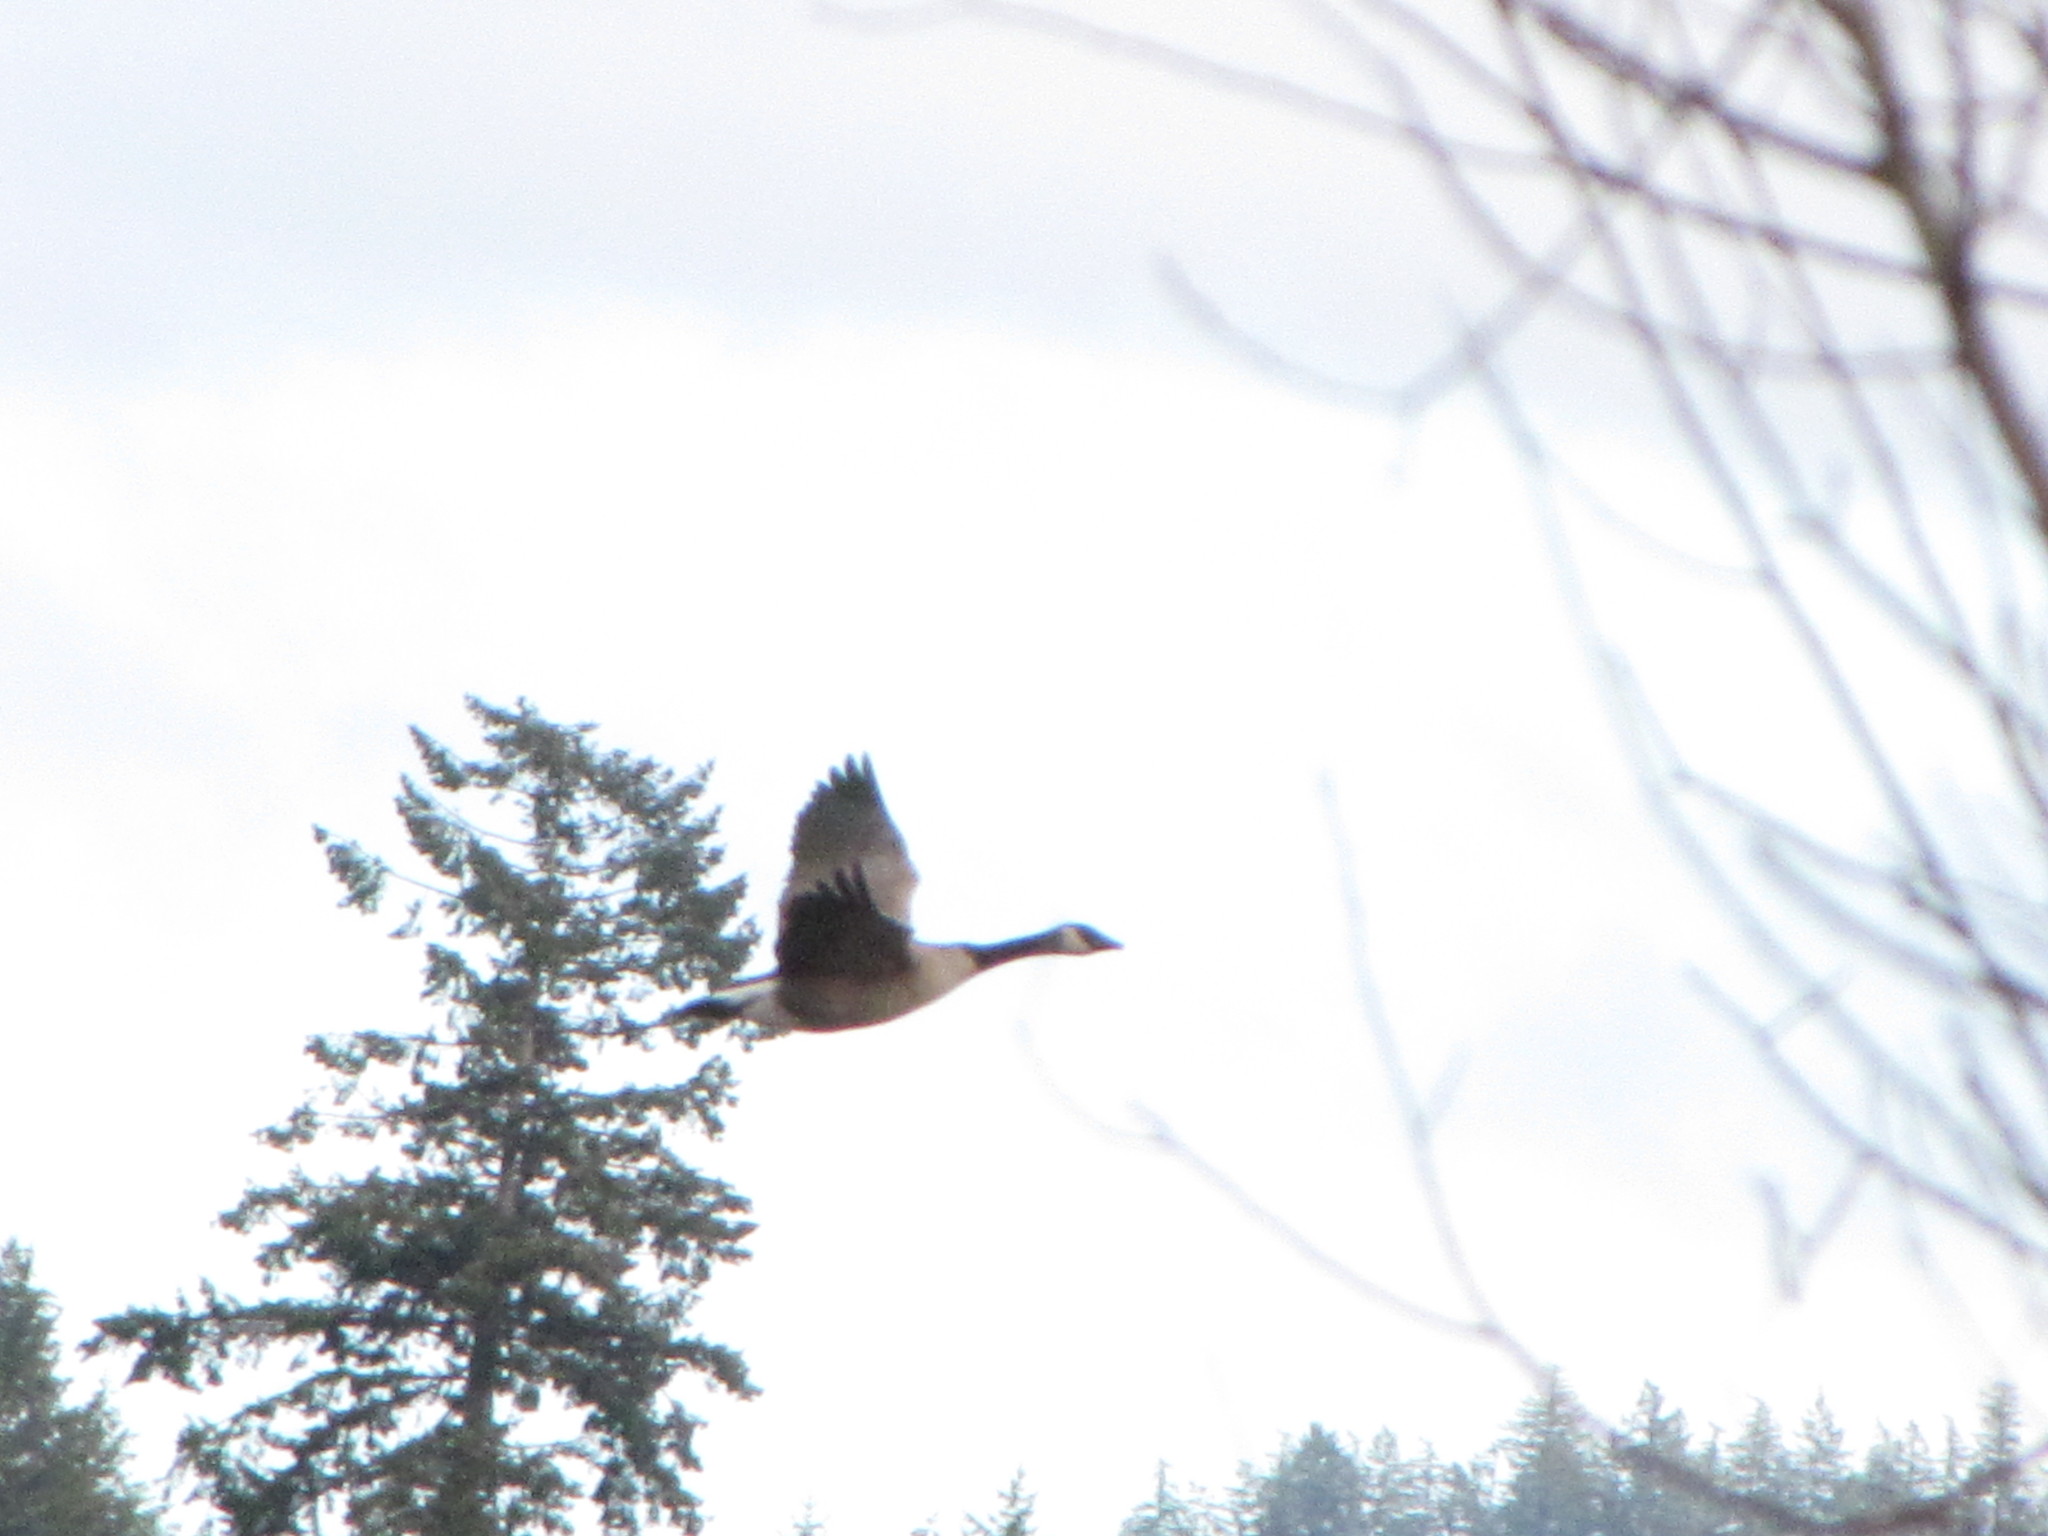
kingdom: Animalia
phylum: Chordata
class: Aves
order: Anseriformes
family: Anatidae
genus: Branta
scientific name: Branta canadensis
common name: Canada goose
